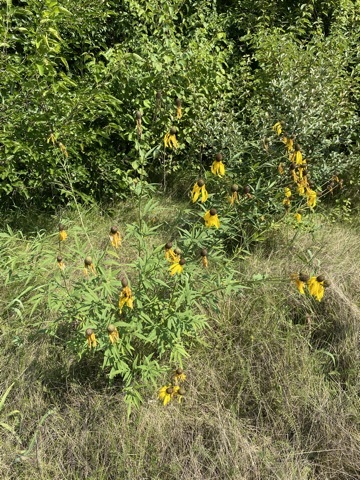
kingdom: Plantae
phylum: Tracheophyta
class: Magnoliopsida
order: Asterales
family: Asteraceae
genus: Ratibida
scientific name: Ratibida pinnata
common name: Drooping prairie-coneflower
